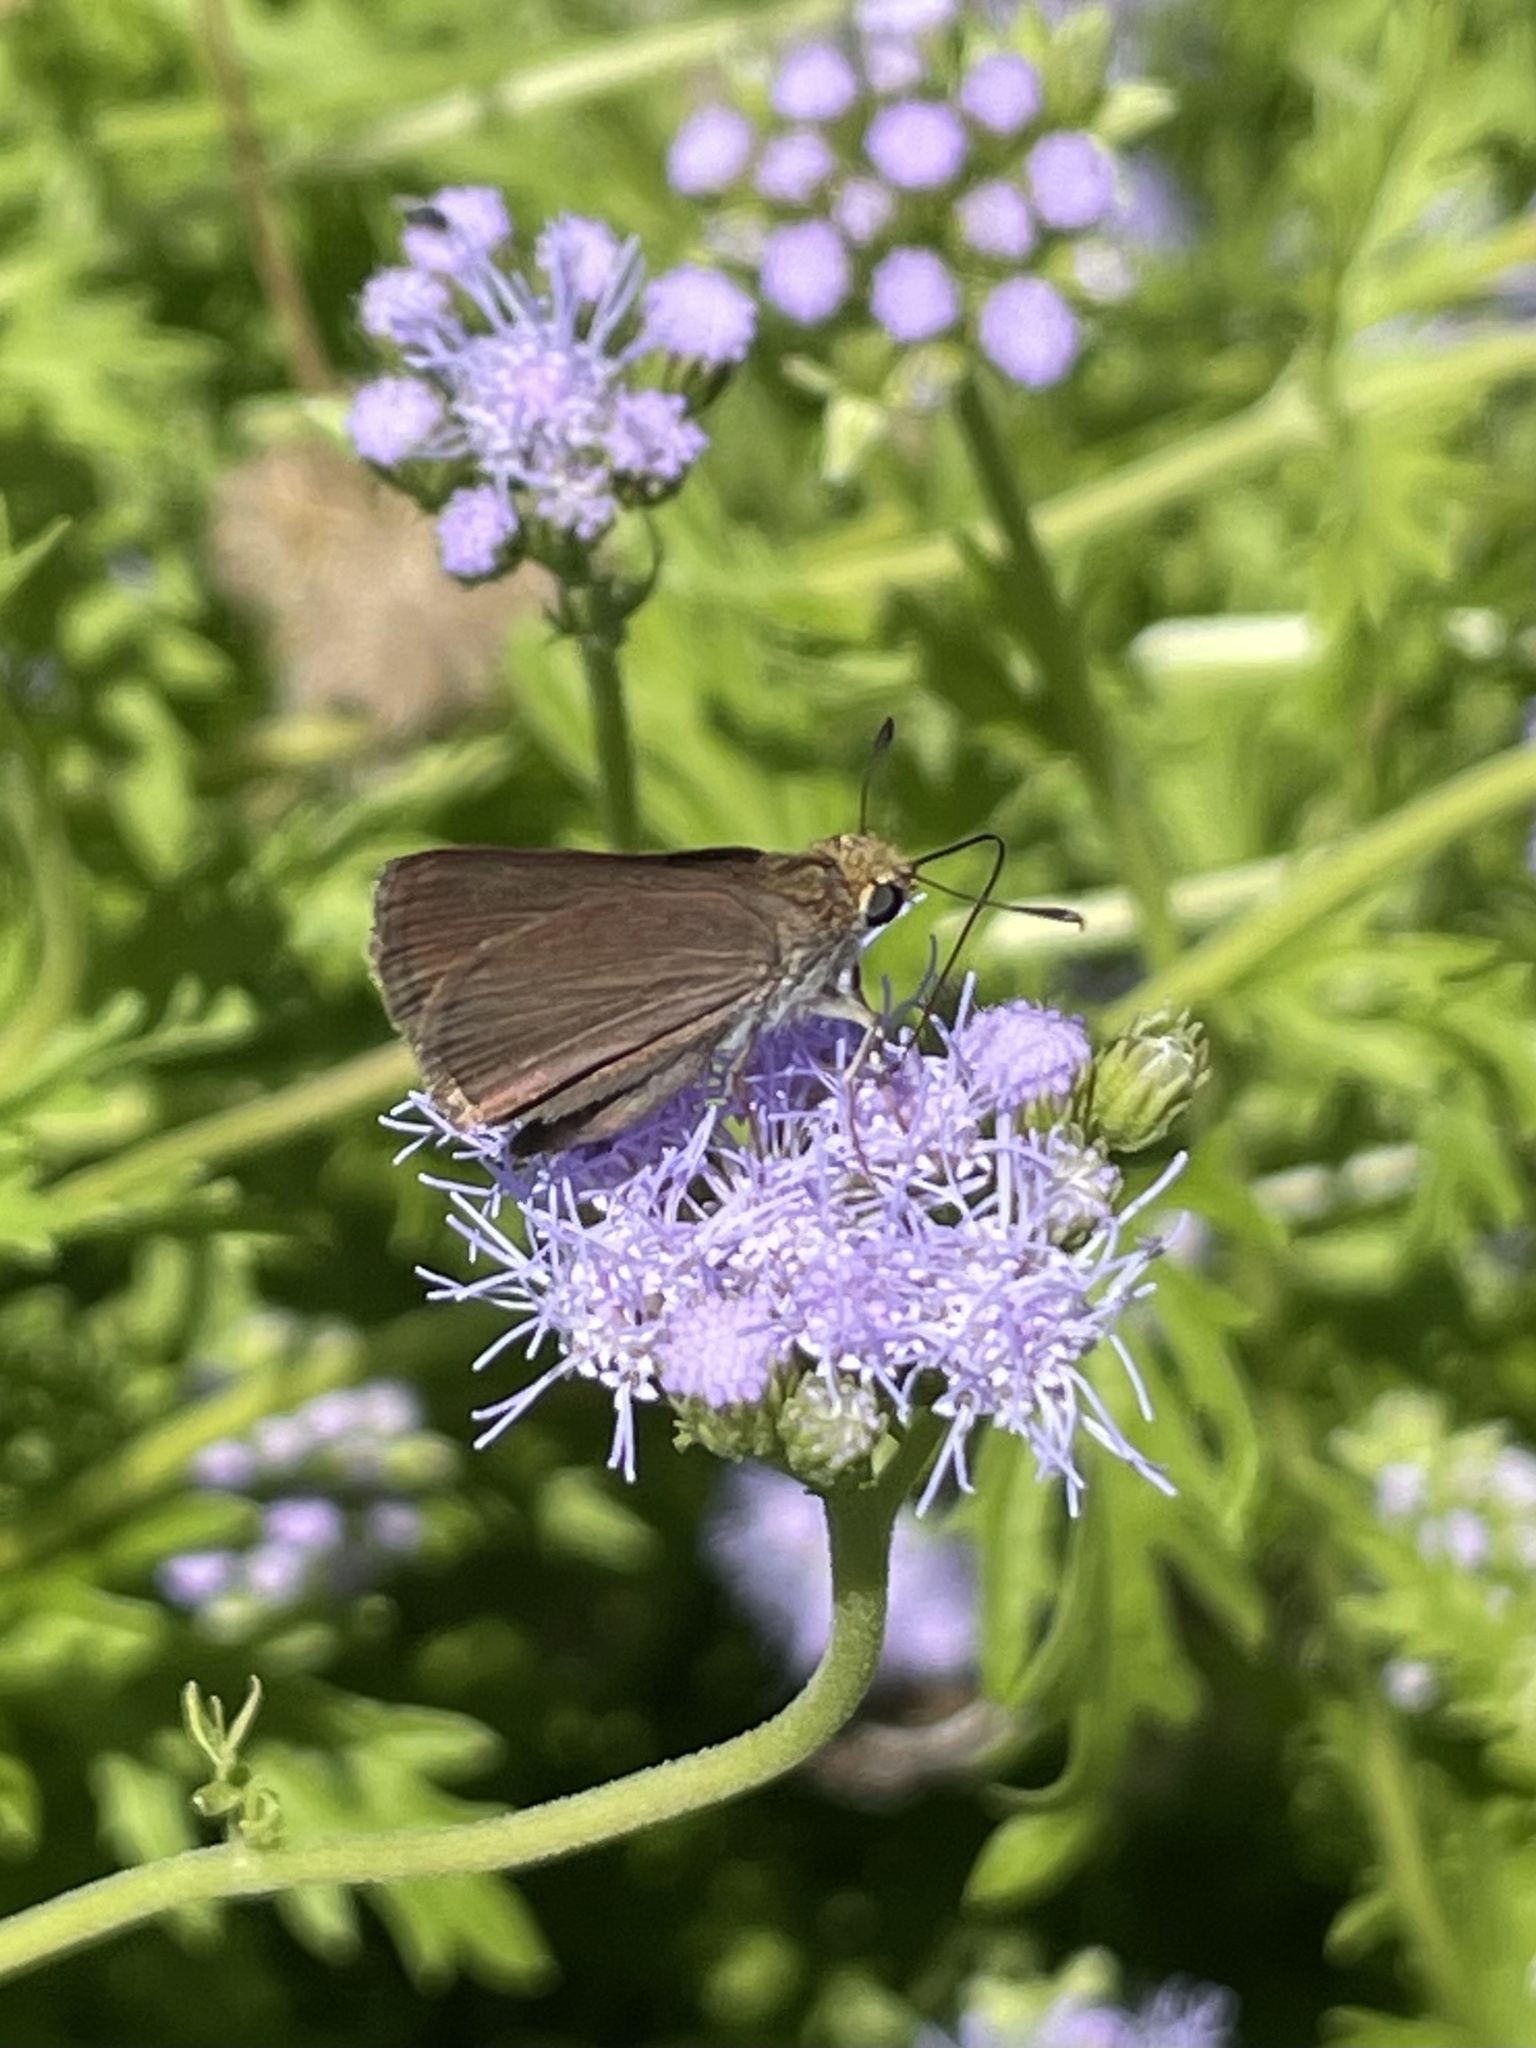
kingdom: Animalia
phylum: Arthropoda
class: Insecta
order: Lepidoptera
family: Hesperiidae
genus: Euphyes
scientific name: Euphyes vestris
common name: Dun skipper
